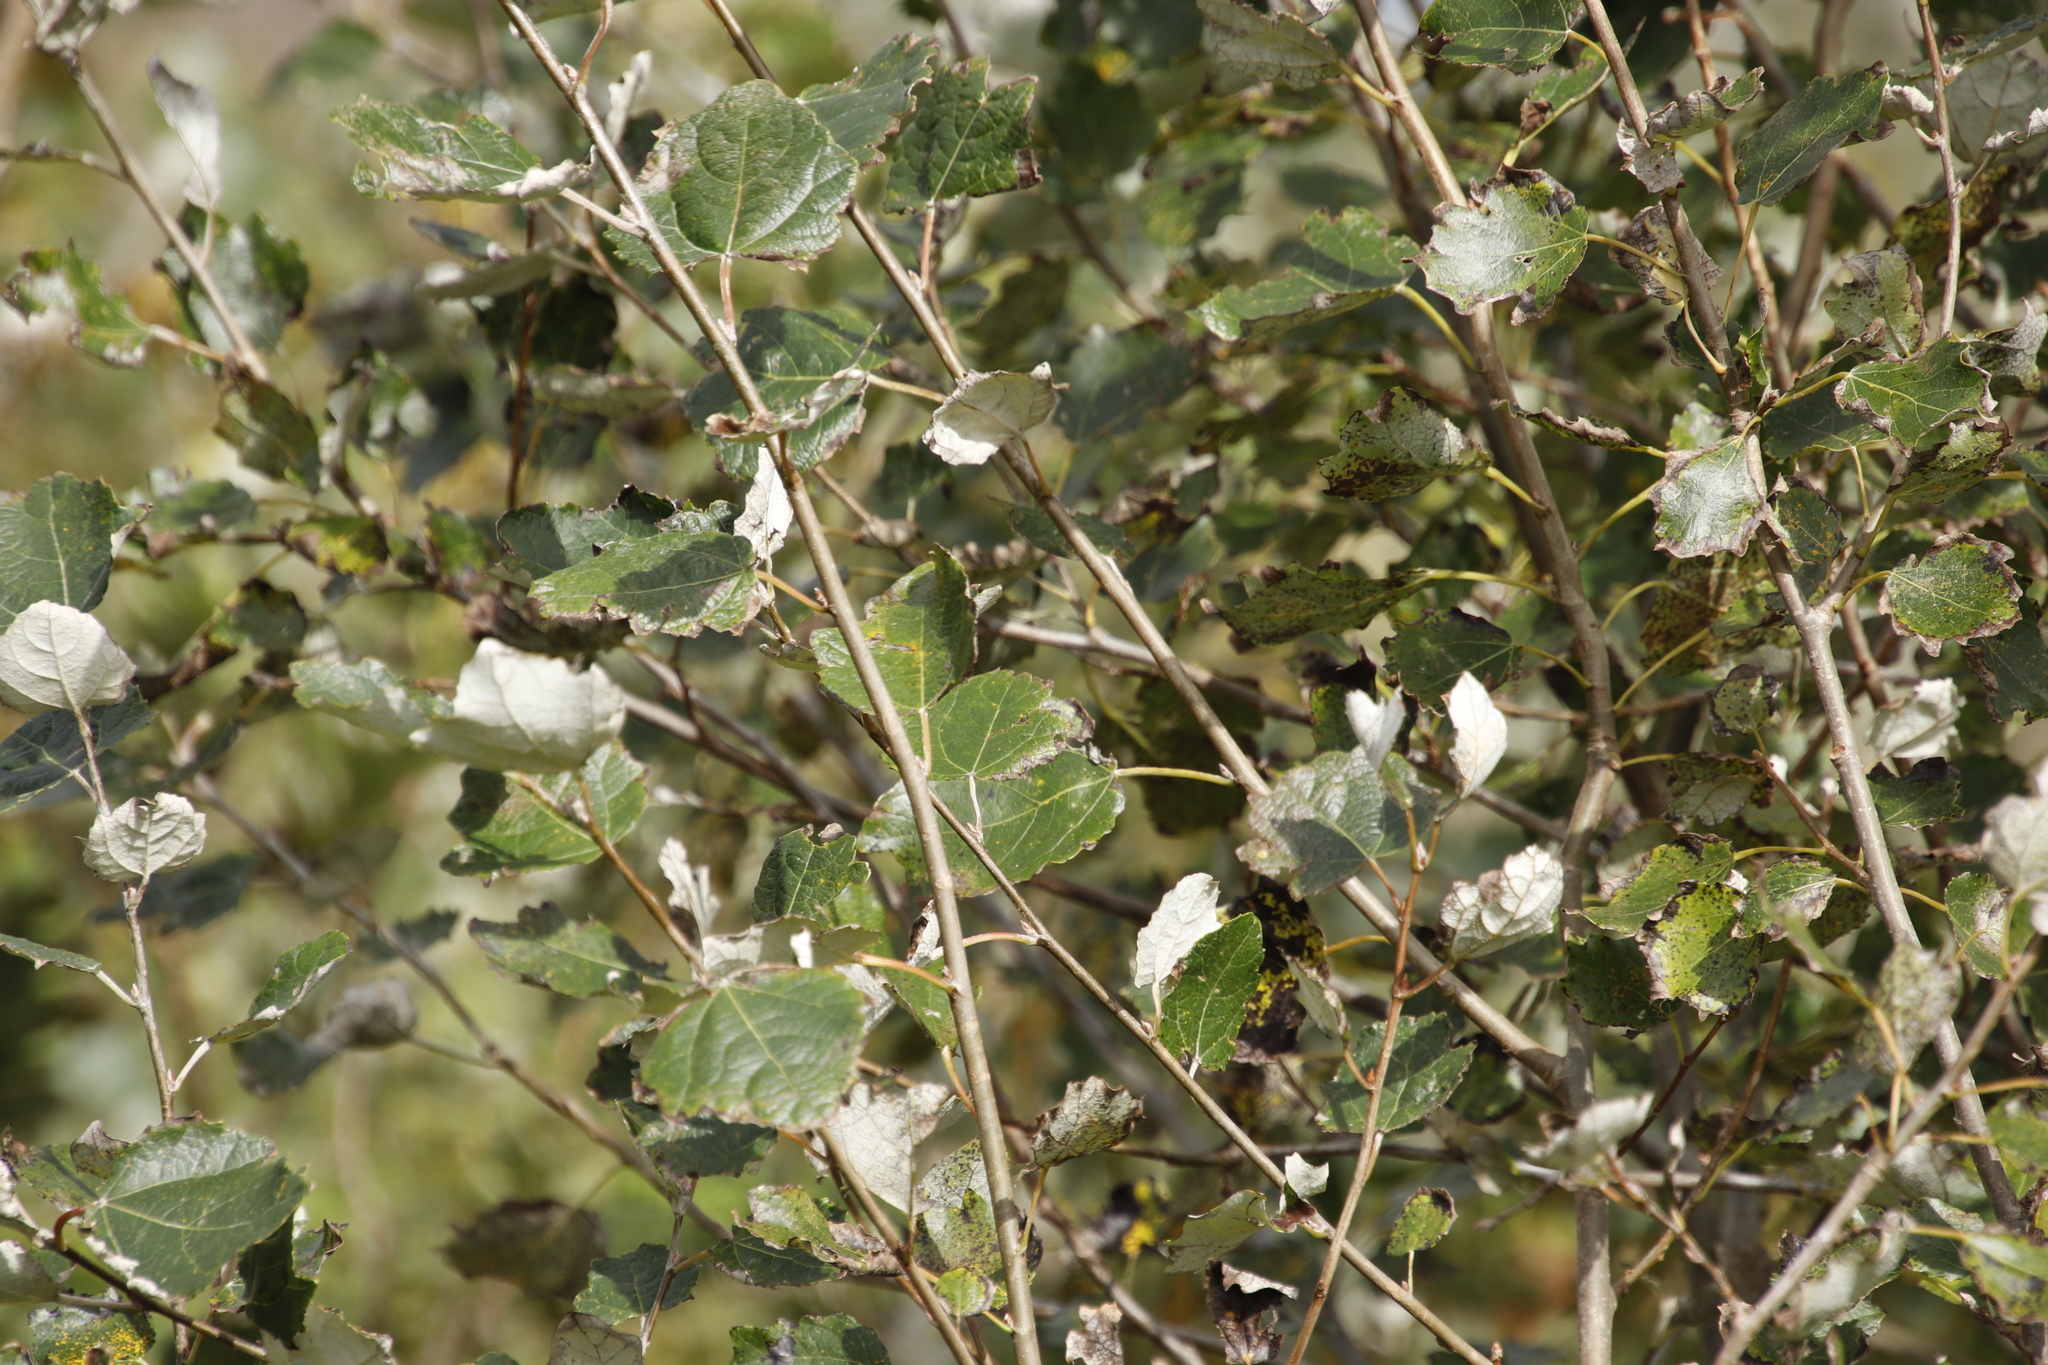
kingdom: Plantae
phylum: Tracheophyta
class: Magnoliopsida
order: Malpighiales
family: Salicaceae
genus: Populus
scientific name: Populus canescens
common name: Gray poplar
